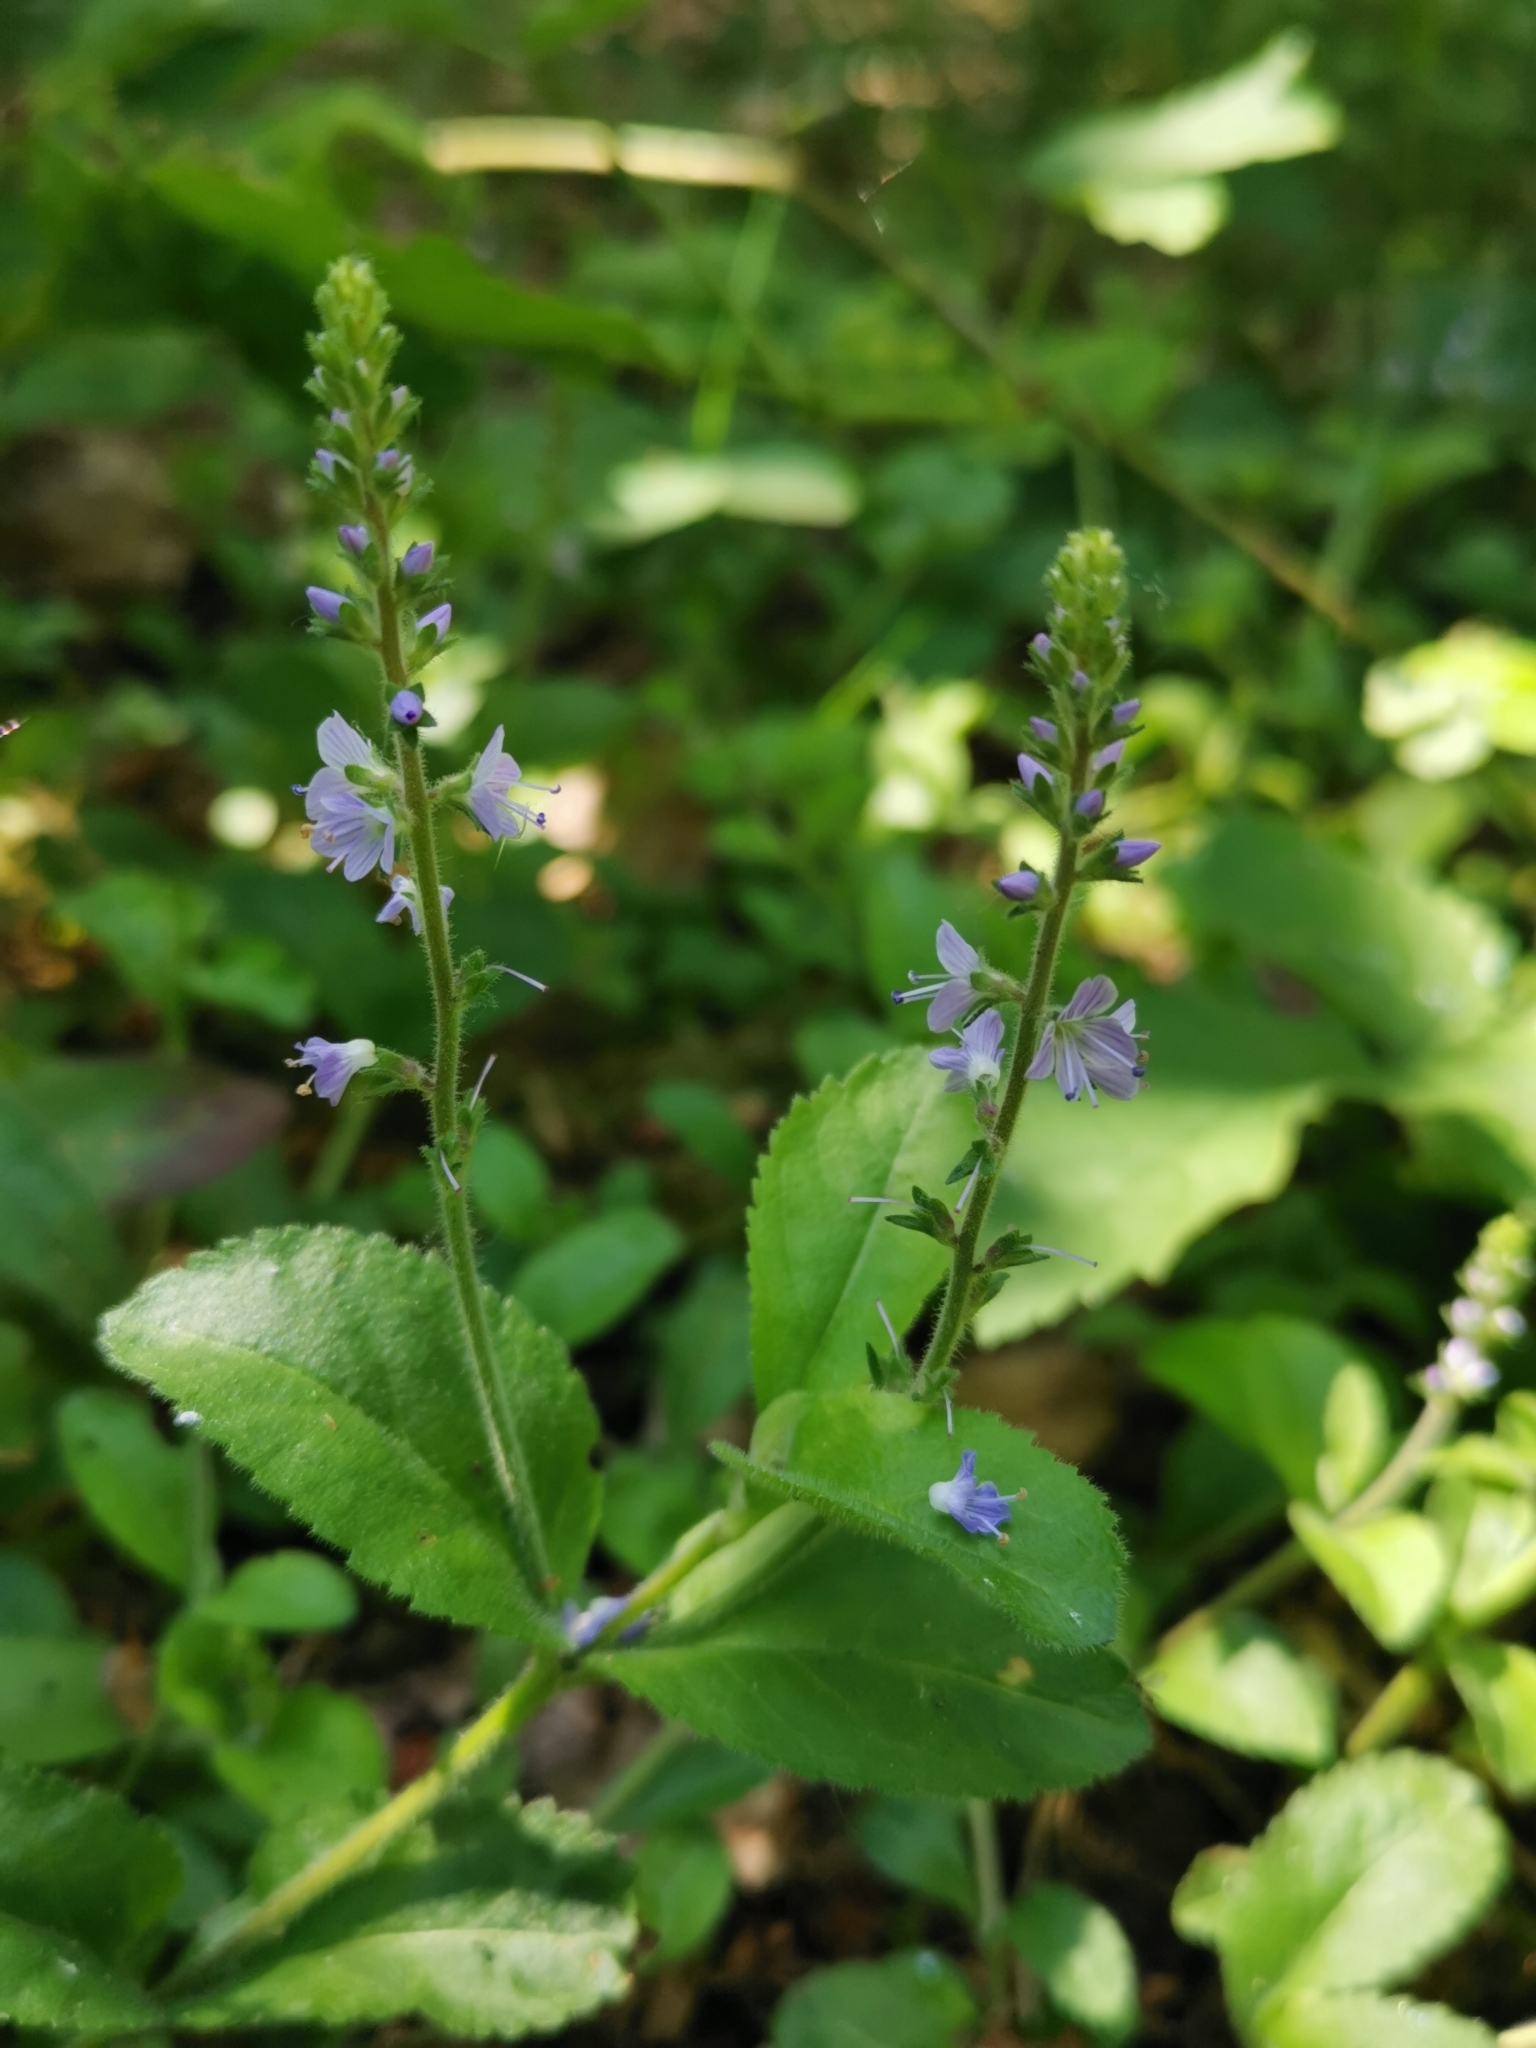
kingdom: Plantae
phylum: Tracheophyta
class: Magnoliopsida
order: Lamiales
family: Plantaginaceae
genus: Veronica
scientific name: Veronica officinalis
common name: Common speedwell
